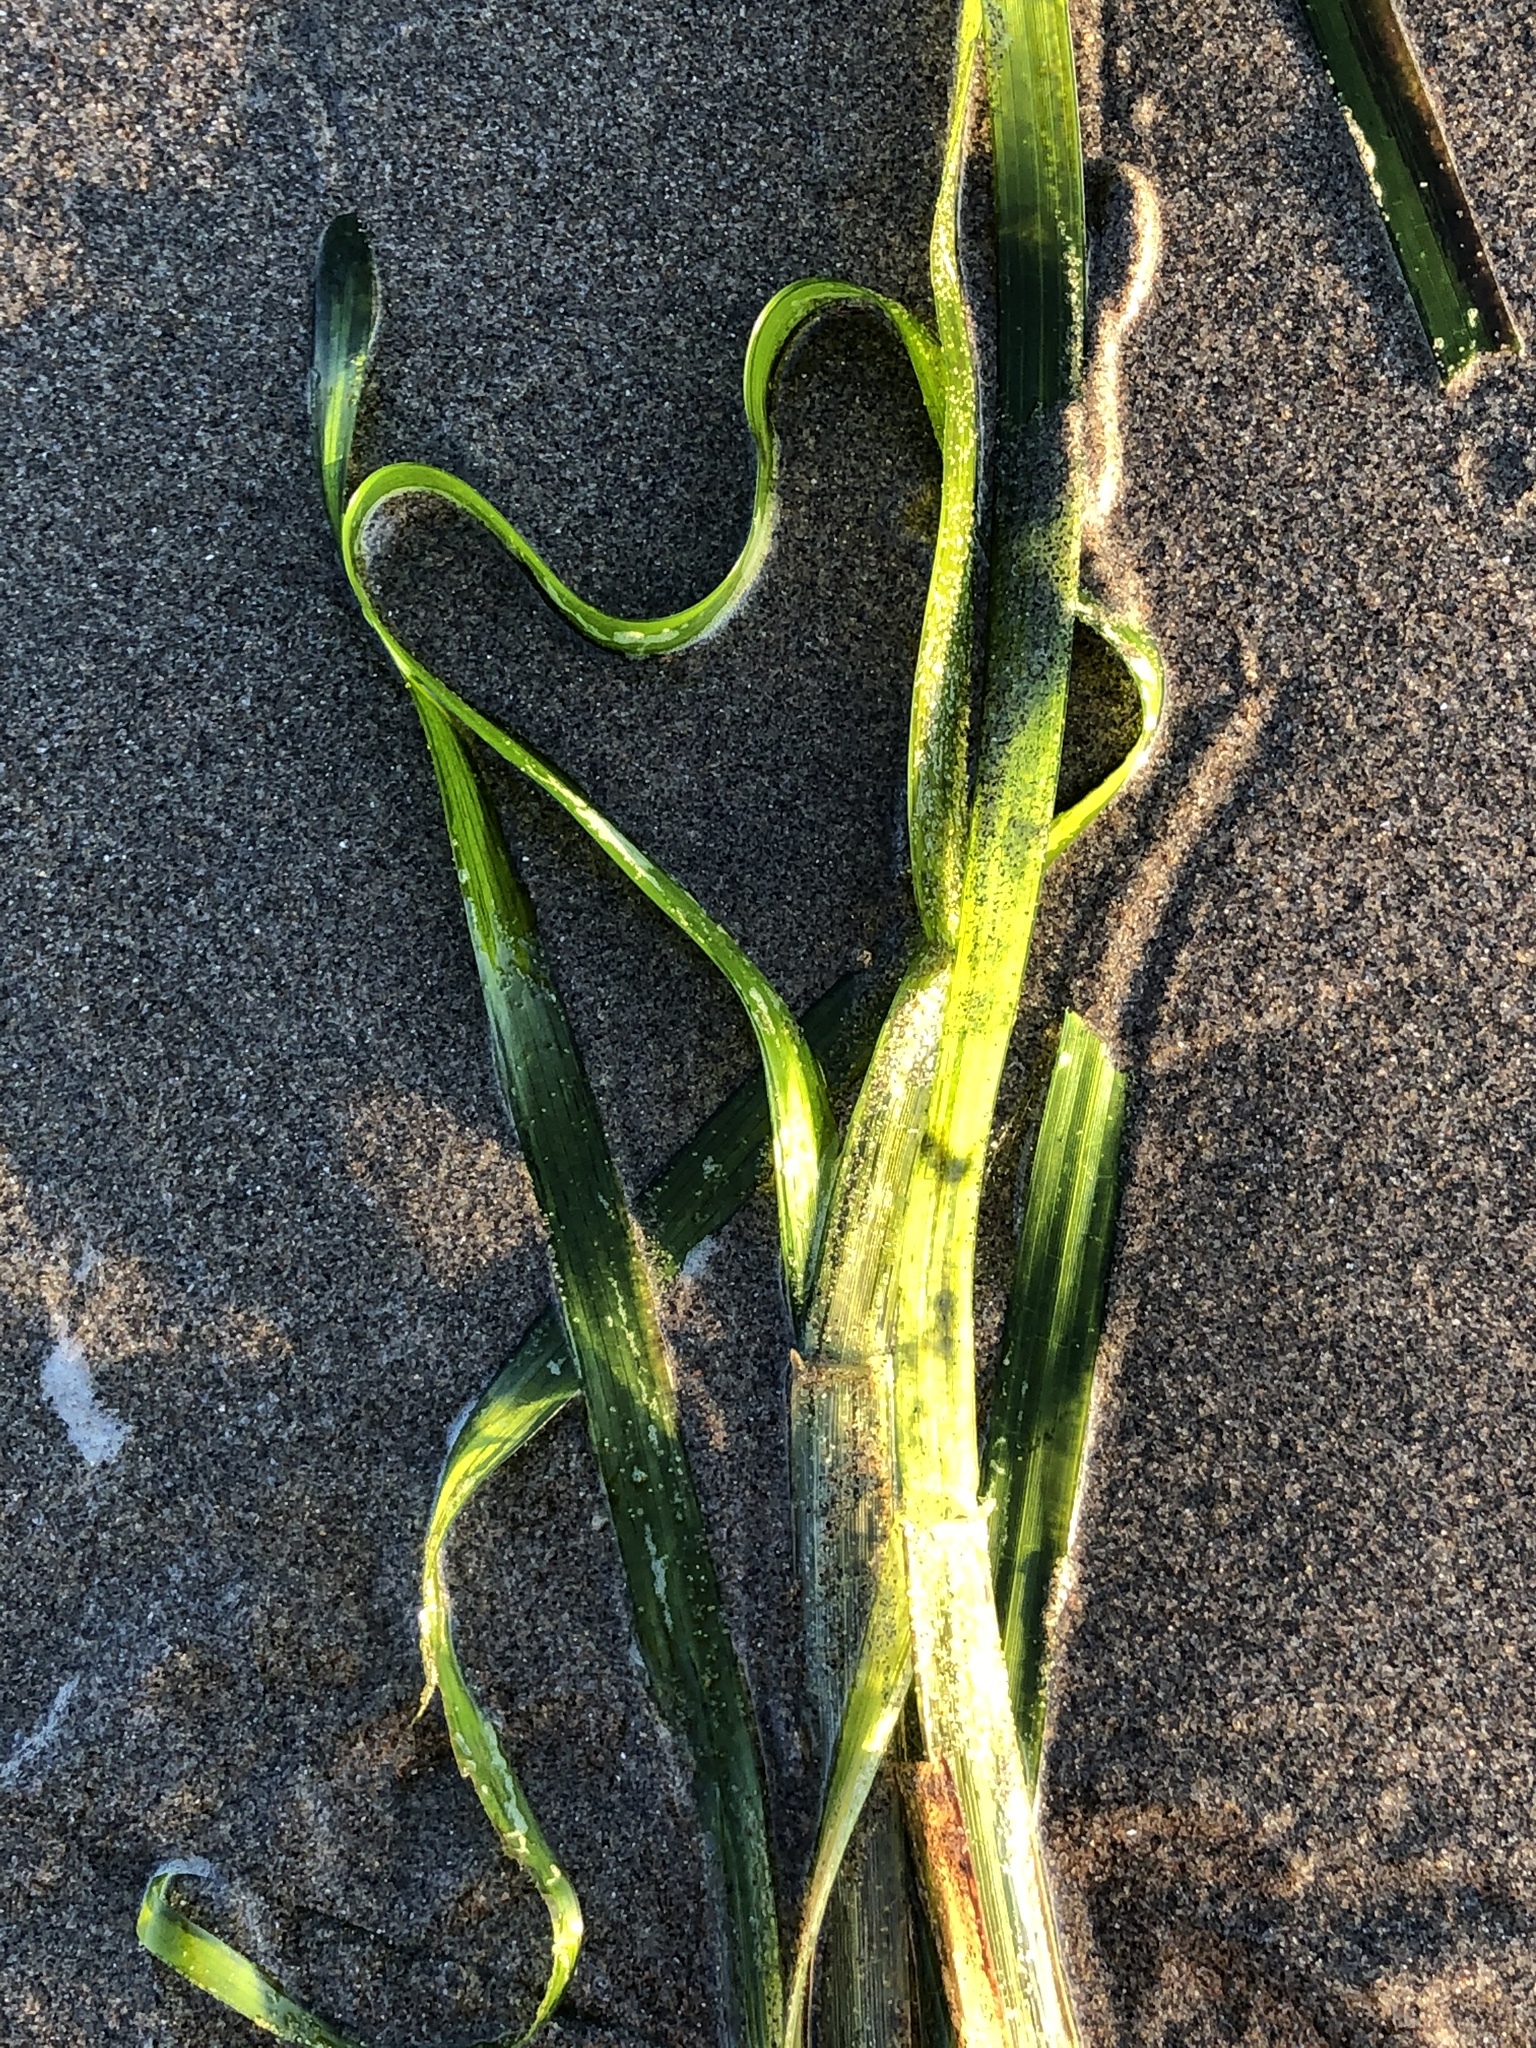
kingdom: Plantae
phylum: Tracheophyta
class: Liliopsida
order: Alismatales
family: Zosteraceae
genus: Zostera
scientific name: Zostera marina
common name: Eelgrass
